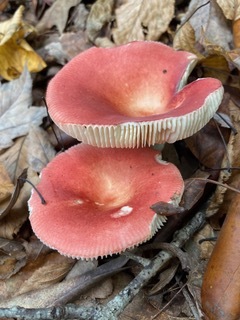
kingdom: Fungi
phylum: Basidiomycota
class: Agaricomycetes
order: Russulales
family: Russulaceae
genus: Russula
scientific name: Russula mariae
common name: Purple-bloom russula
